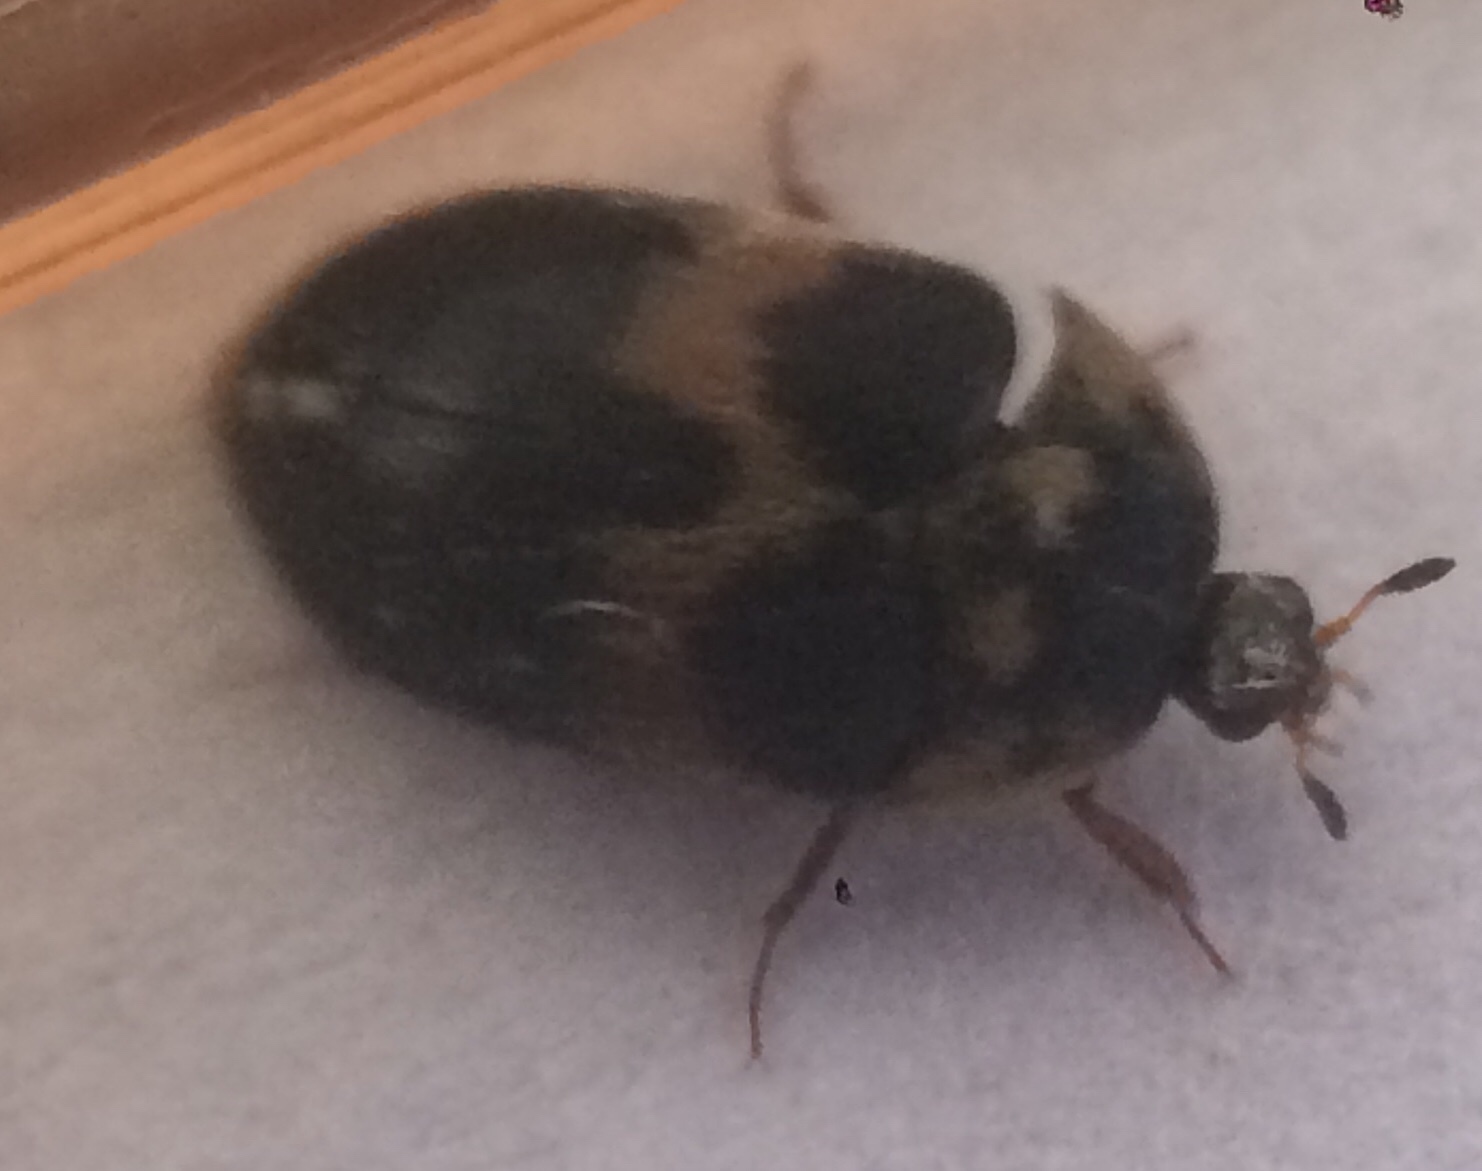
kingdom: Animalia
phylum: Arthropoda
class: Insecta
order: Coleoptera
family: Dermestidae
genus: Attagenus
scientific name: Attagenus fasciatus
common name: Wardrobe beetle
